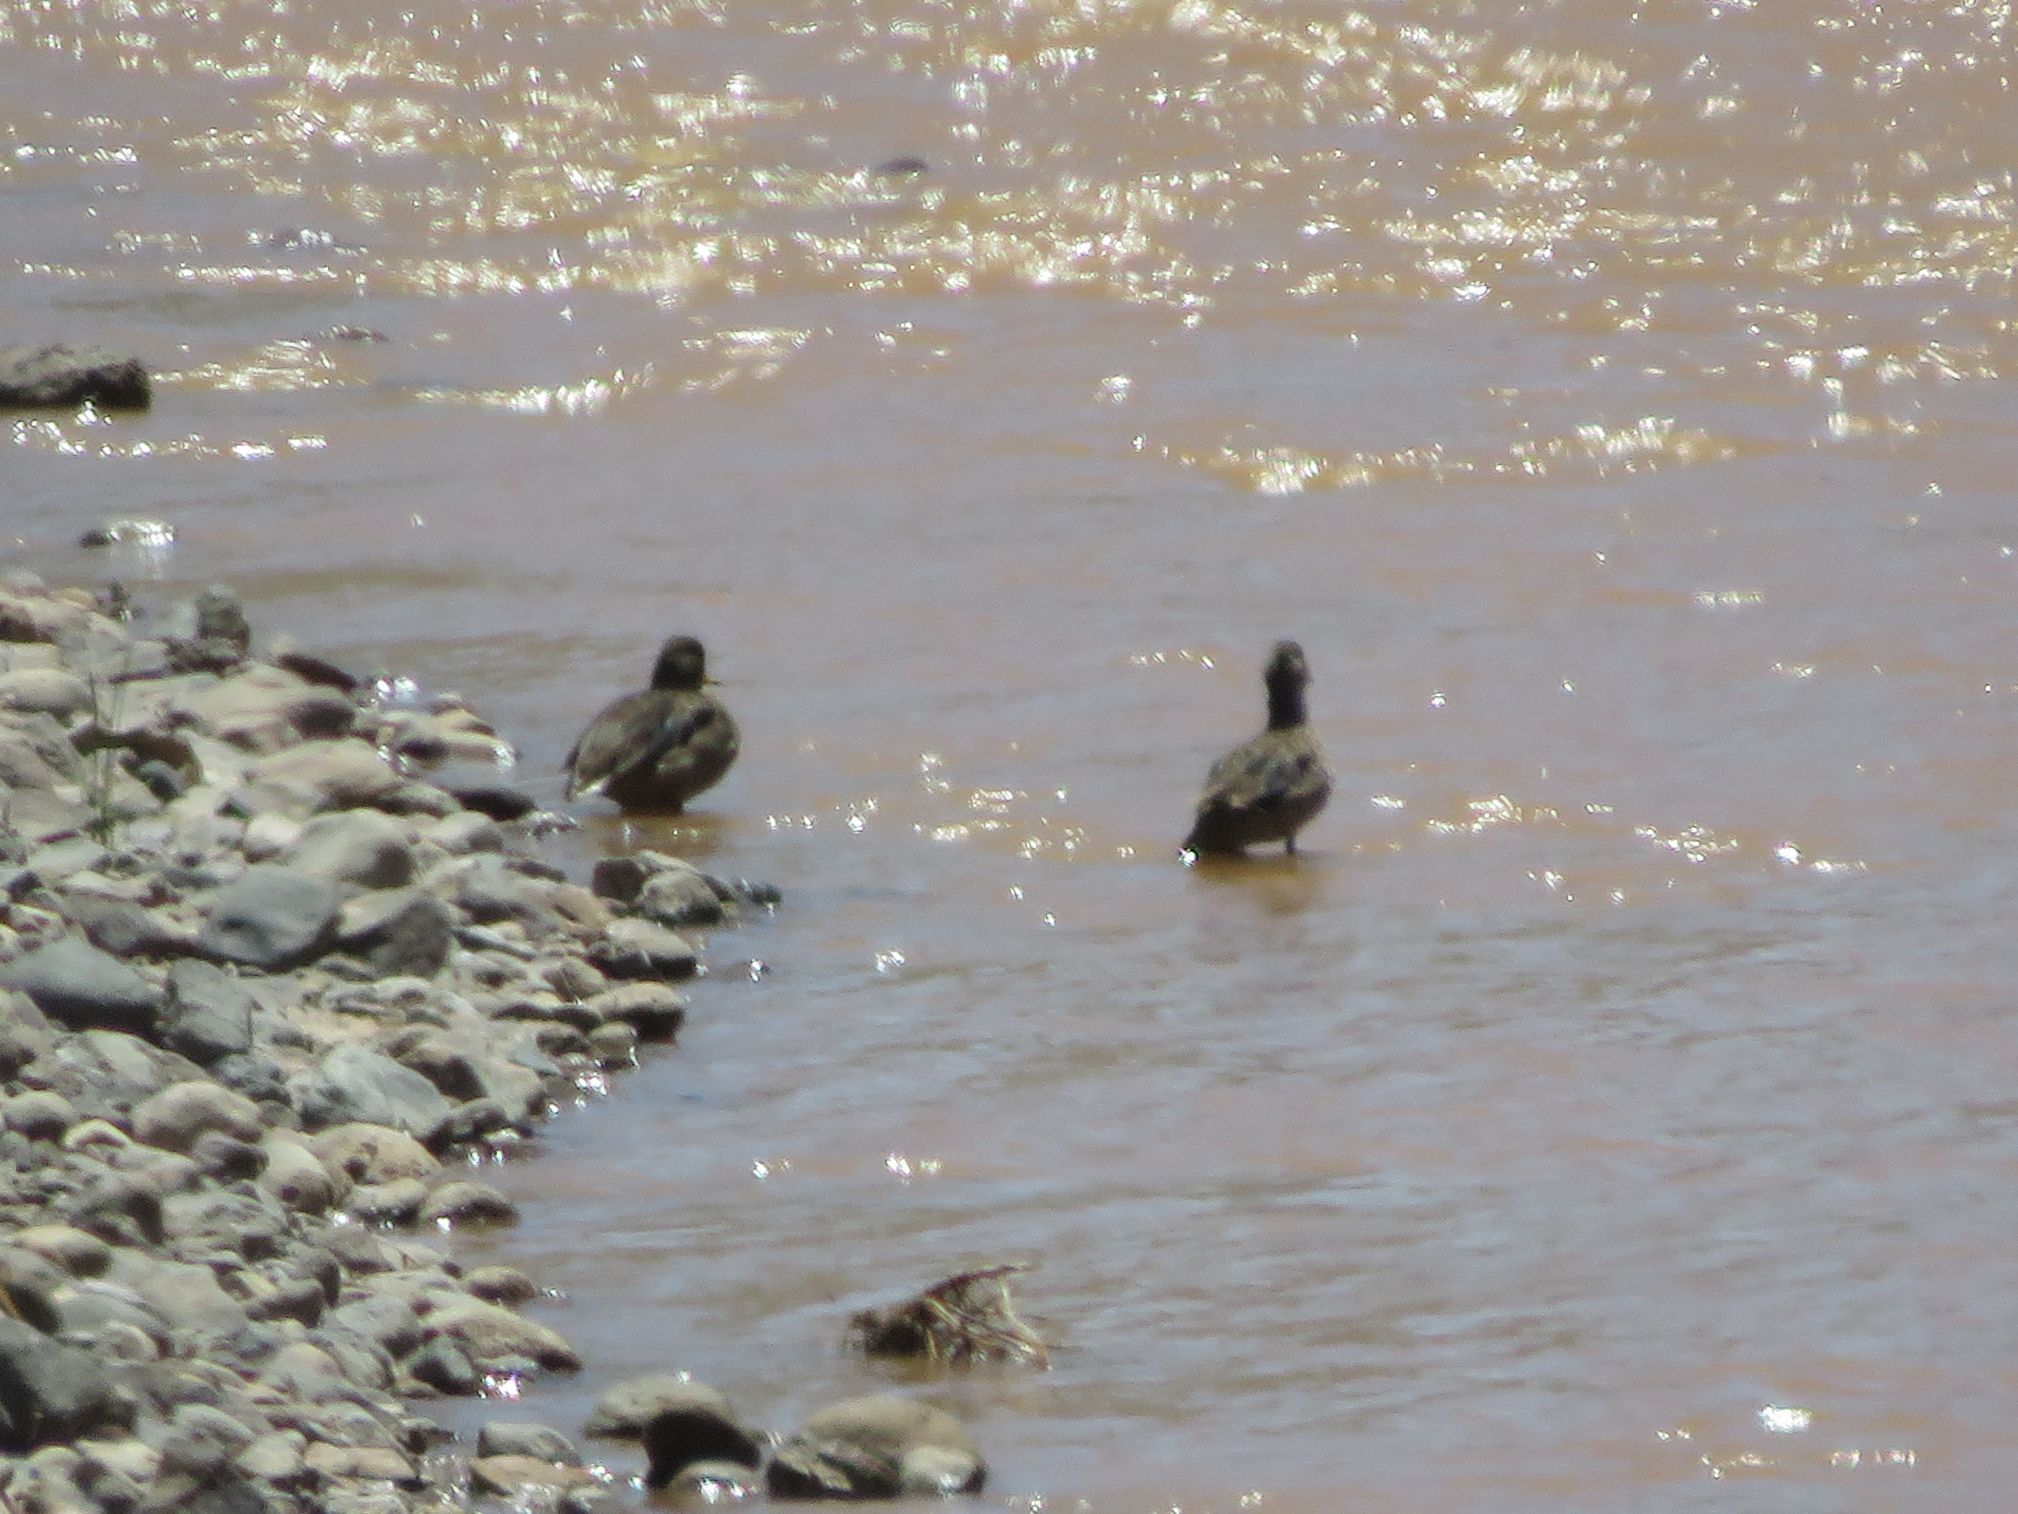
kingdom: Animalia
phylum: Chordata
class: Aves
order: Anseriformes
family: Anatidae
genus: Lophonetta
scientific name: Lophonetta specularioides
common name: Crested duck
